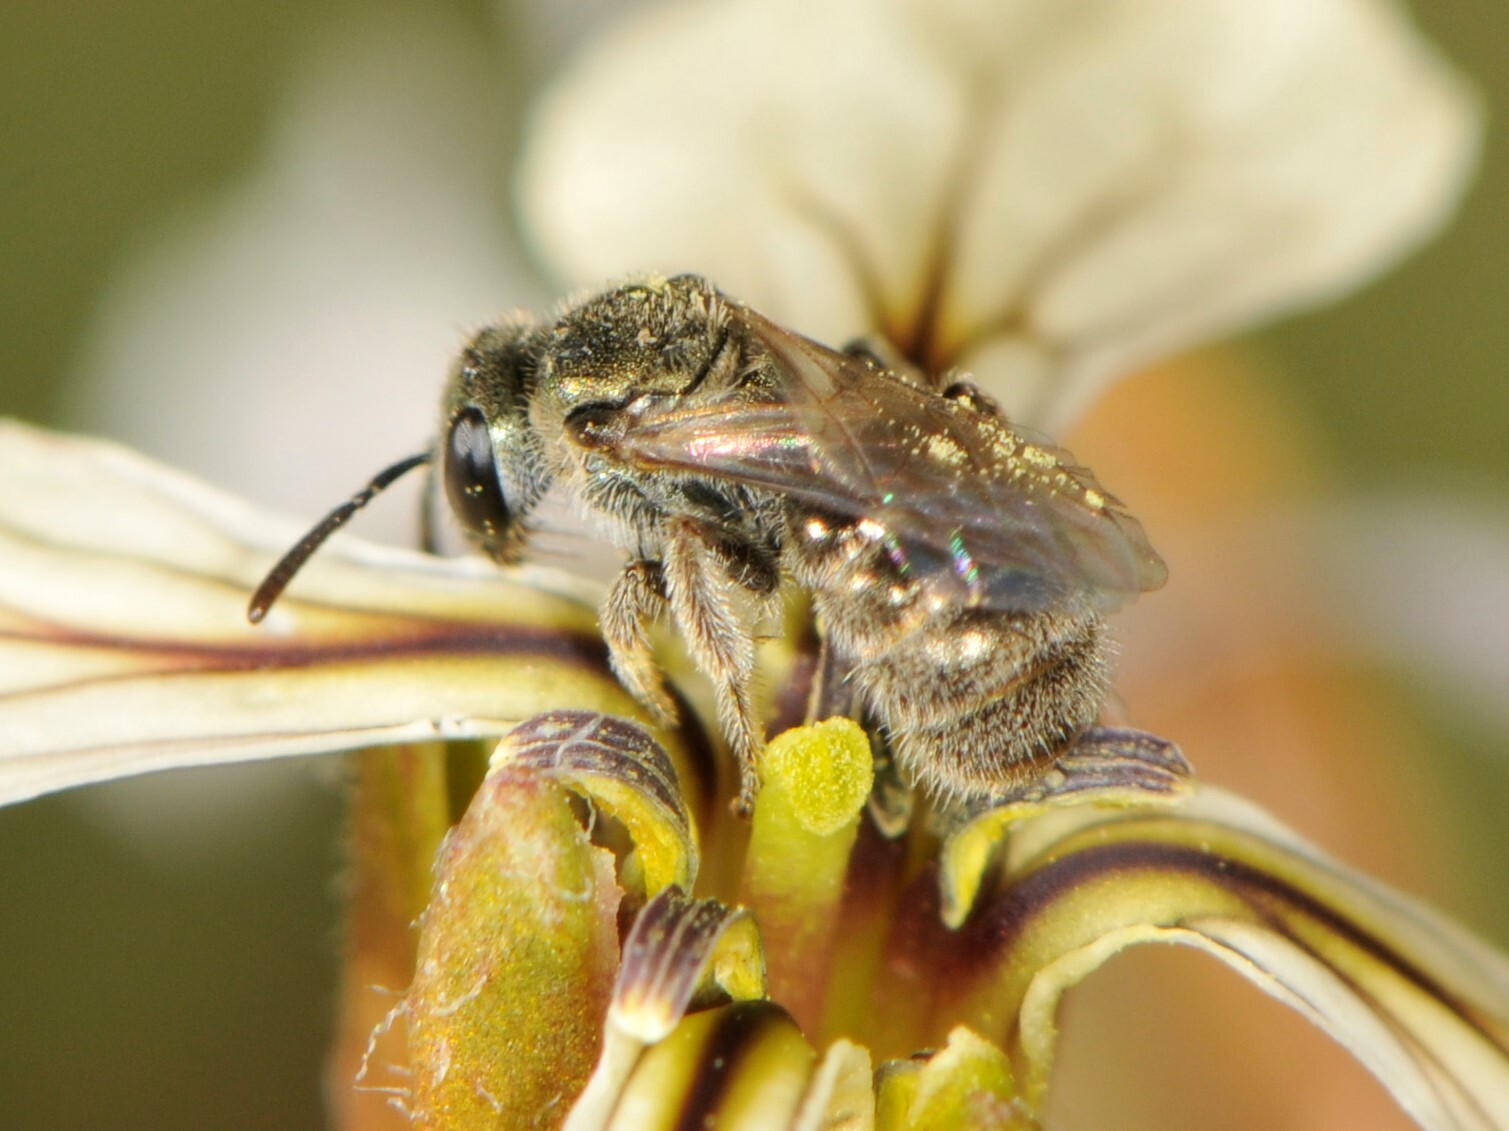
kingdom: Animalia
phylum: Arthropoda
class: Insecta
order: Hymenoptera
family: Halictidae
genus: Dialictus
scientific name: Dialictus
